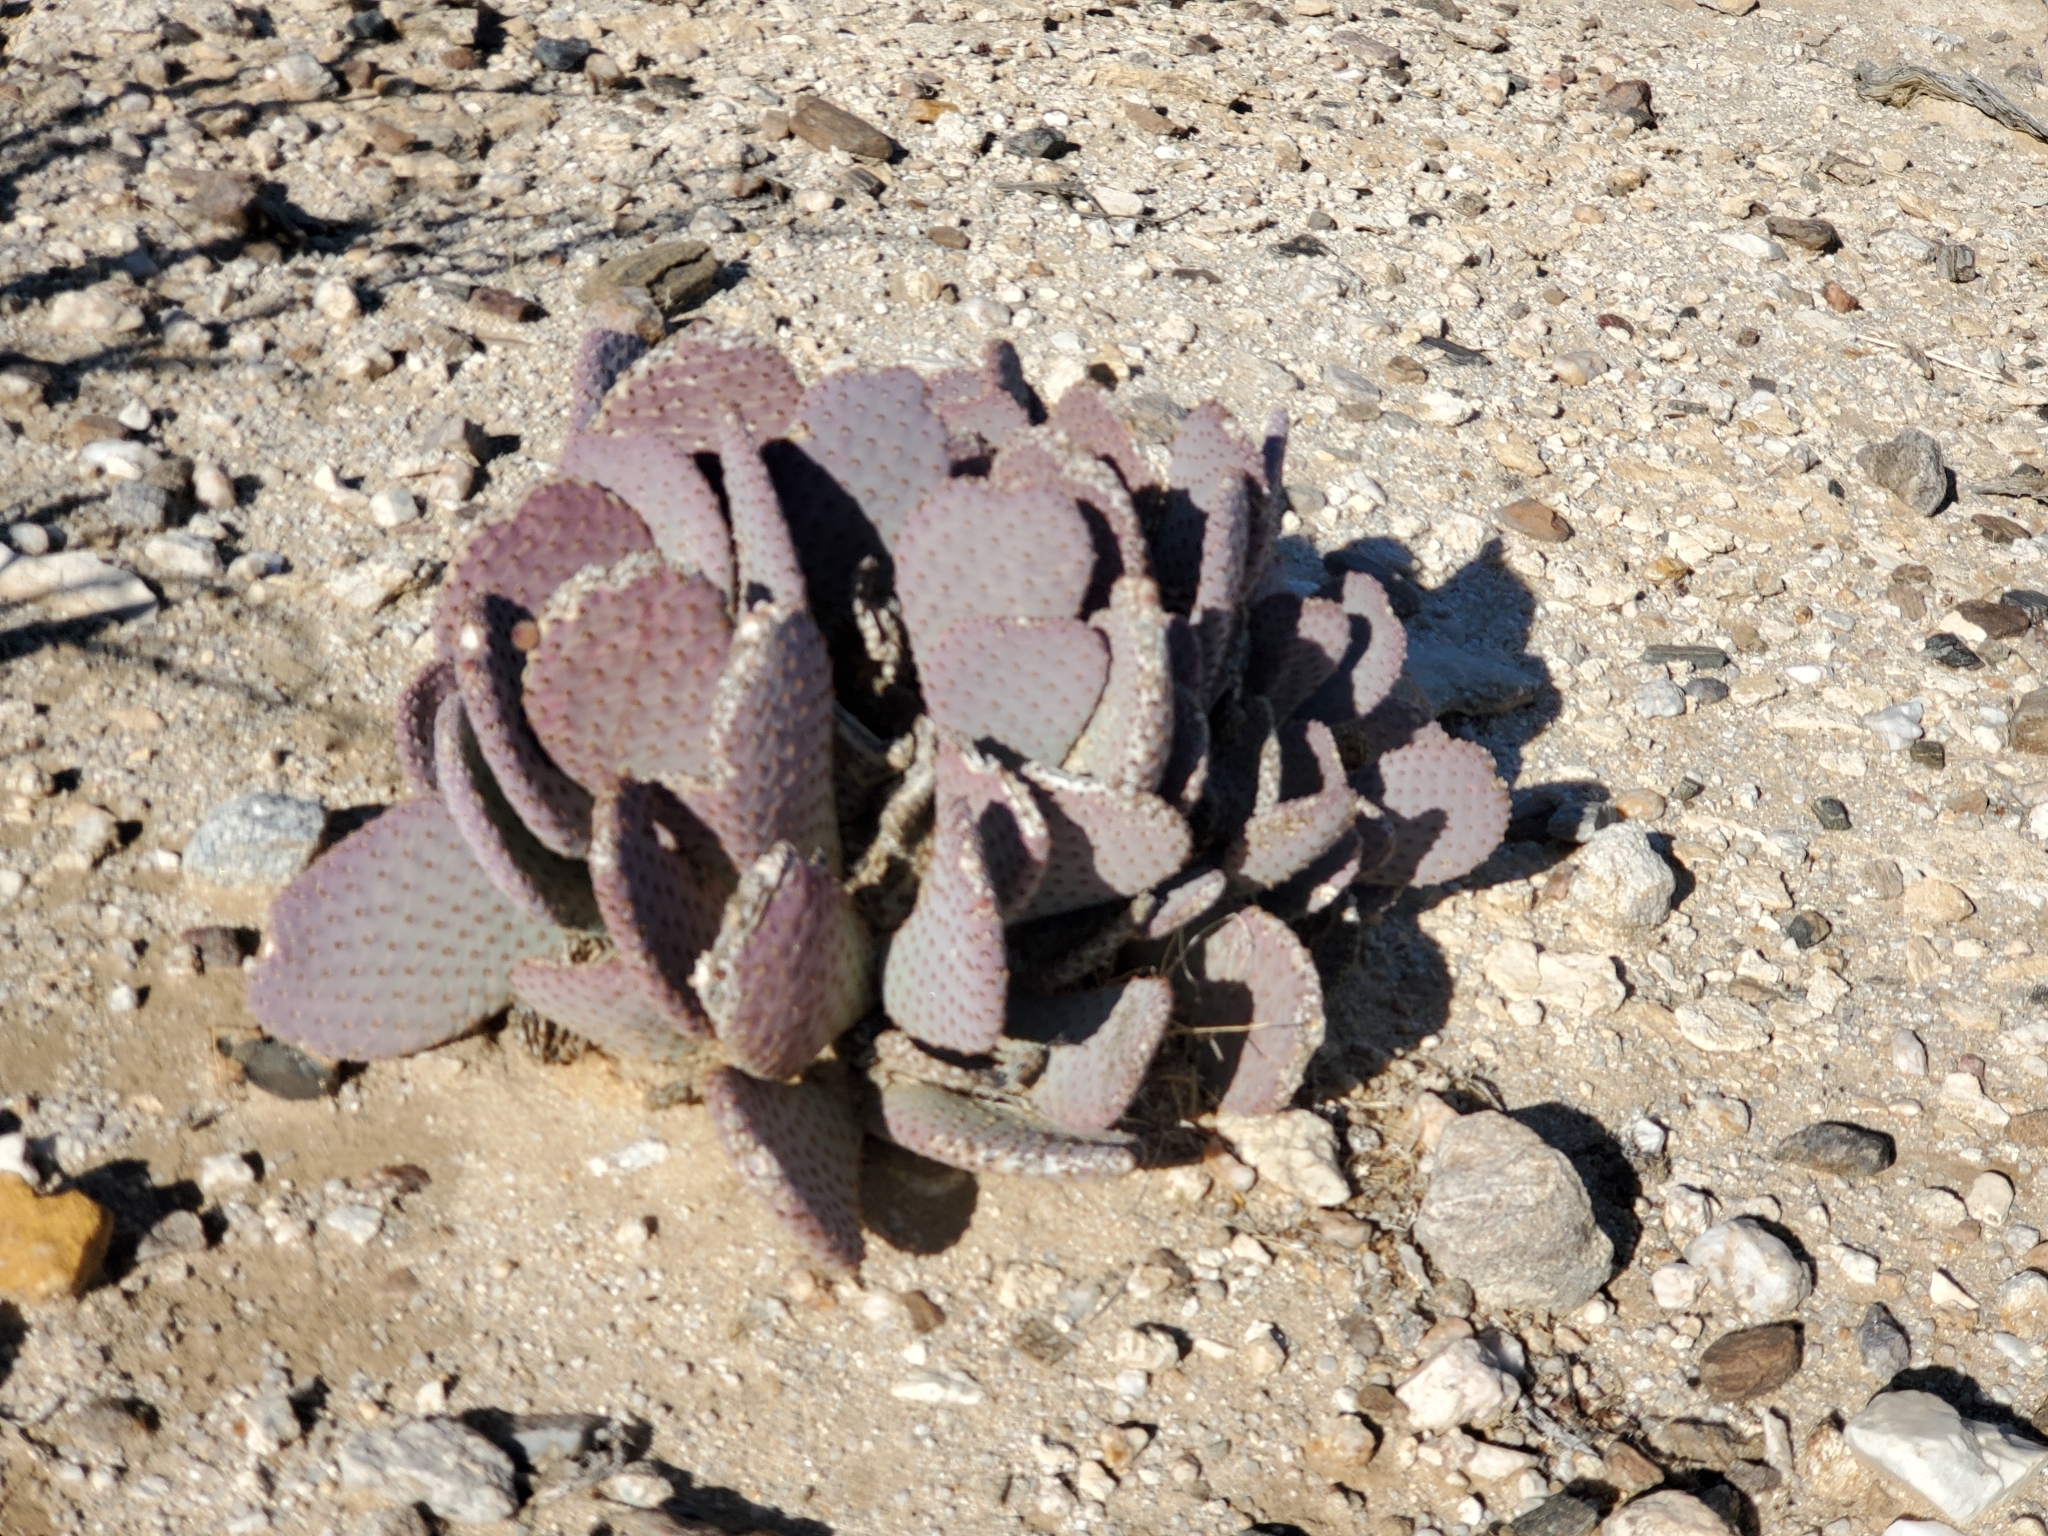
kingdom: Plantae
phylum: Tracheophyta
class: Magnoliopsida
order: Caryophyllales
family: Cactaceae
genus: Opuntia
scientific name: Opuntia basilaris
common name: Beavertail prickly-pear
